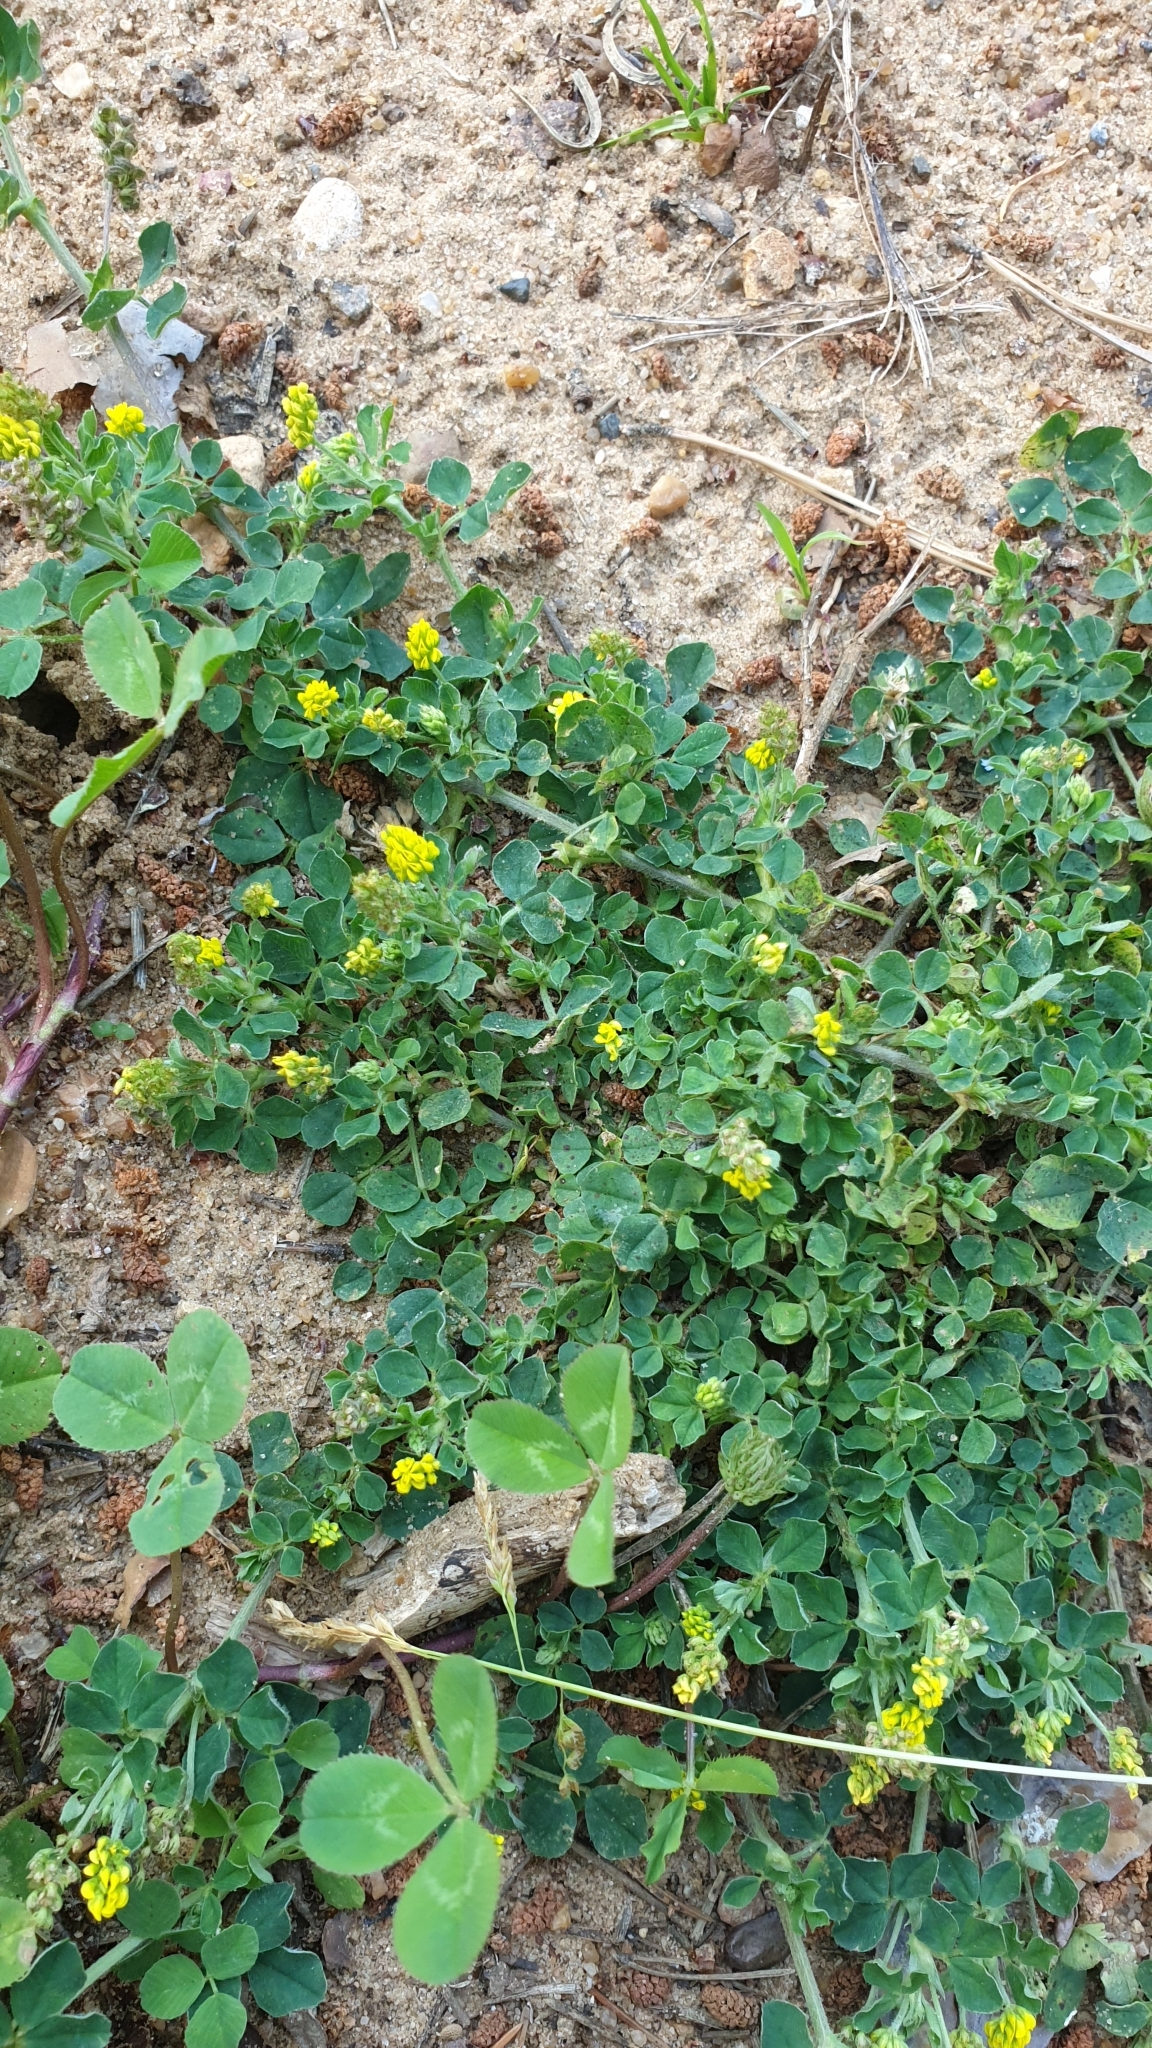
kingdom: Plantae
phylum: Tracheophyta
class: Magnoliopsida
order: Fabales
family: Fabaceae
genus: Medicago
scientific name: Medicago lupulina
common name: Black medick
